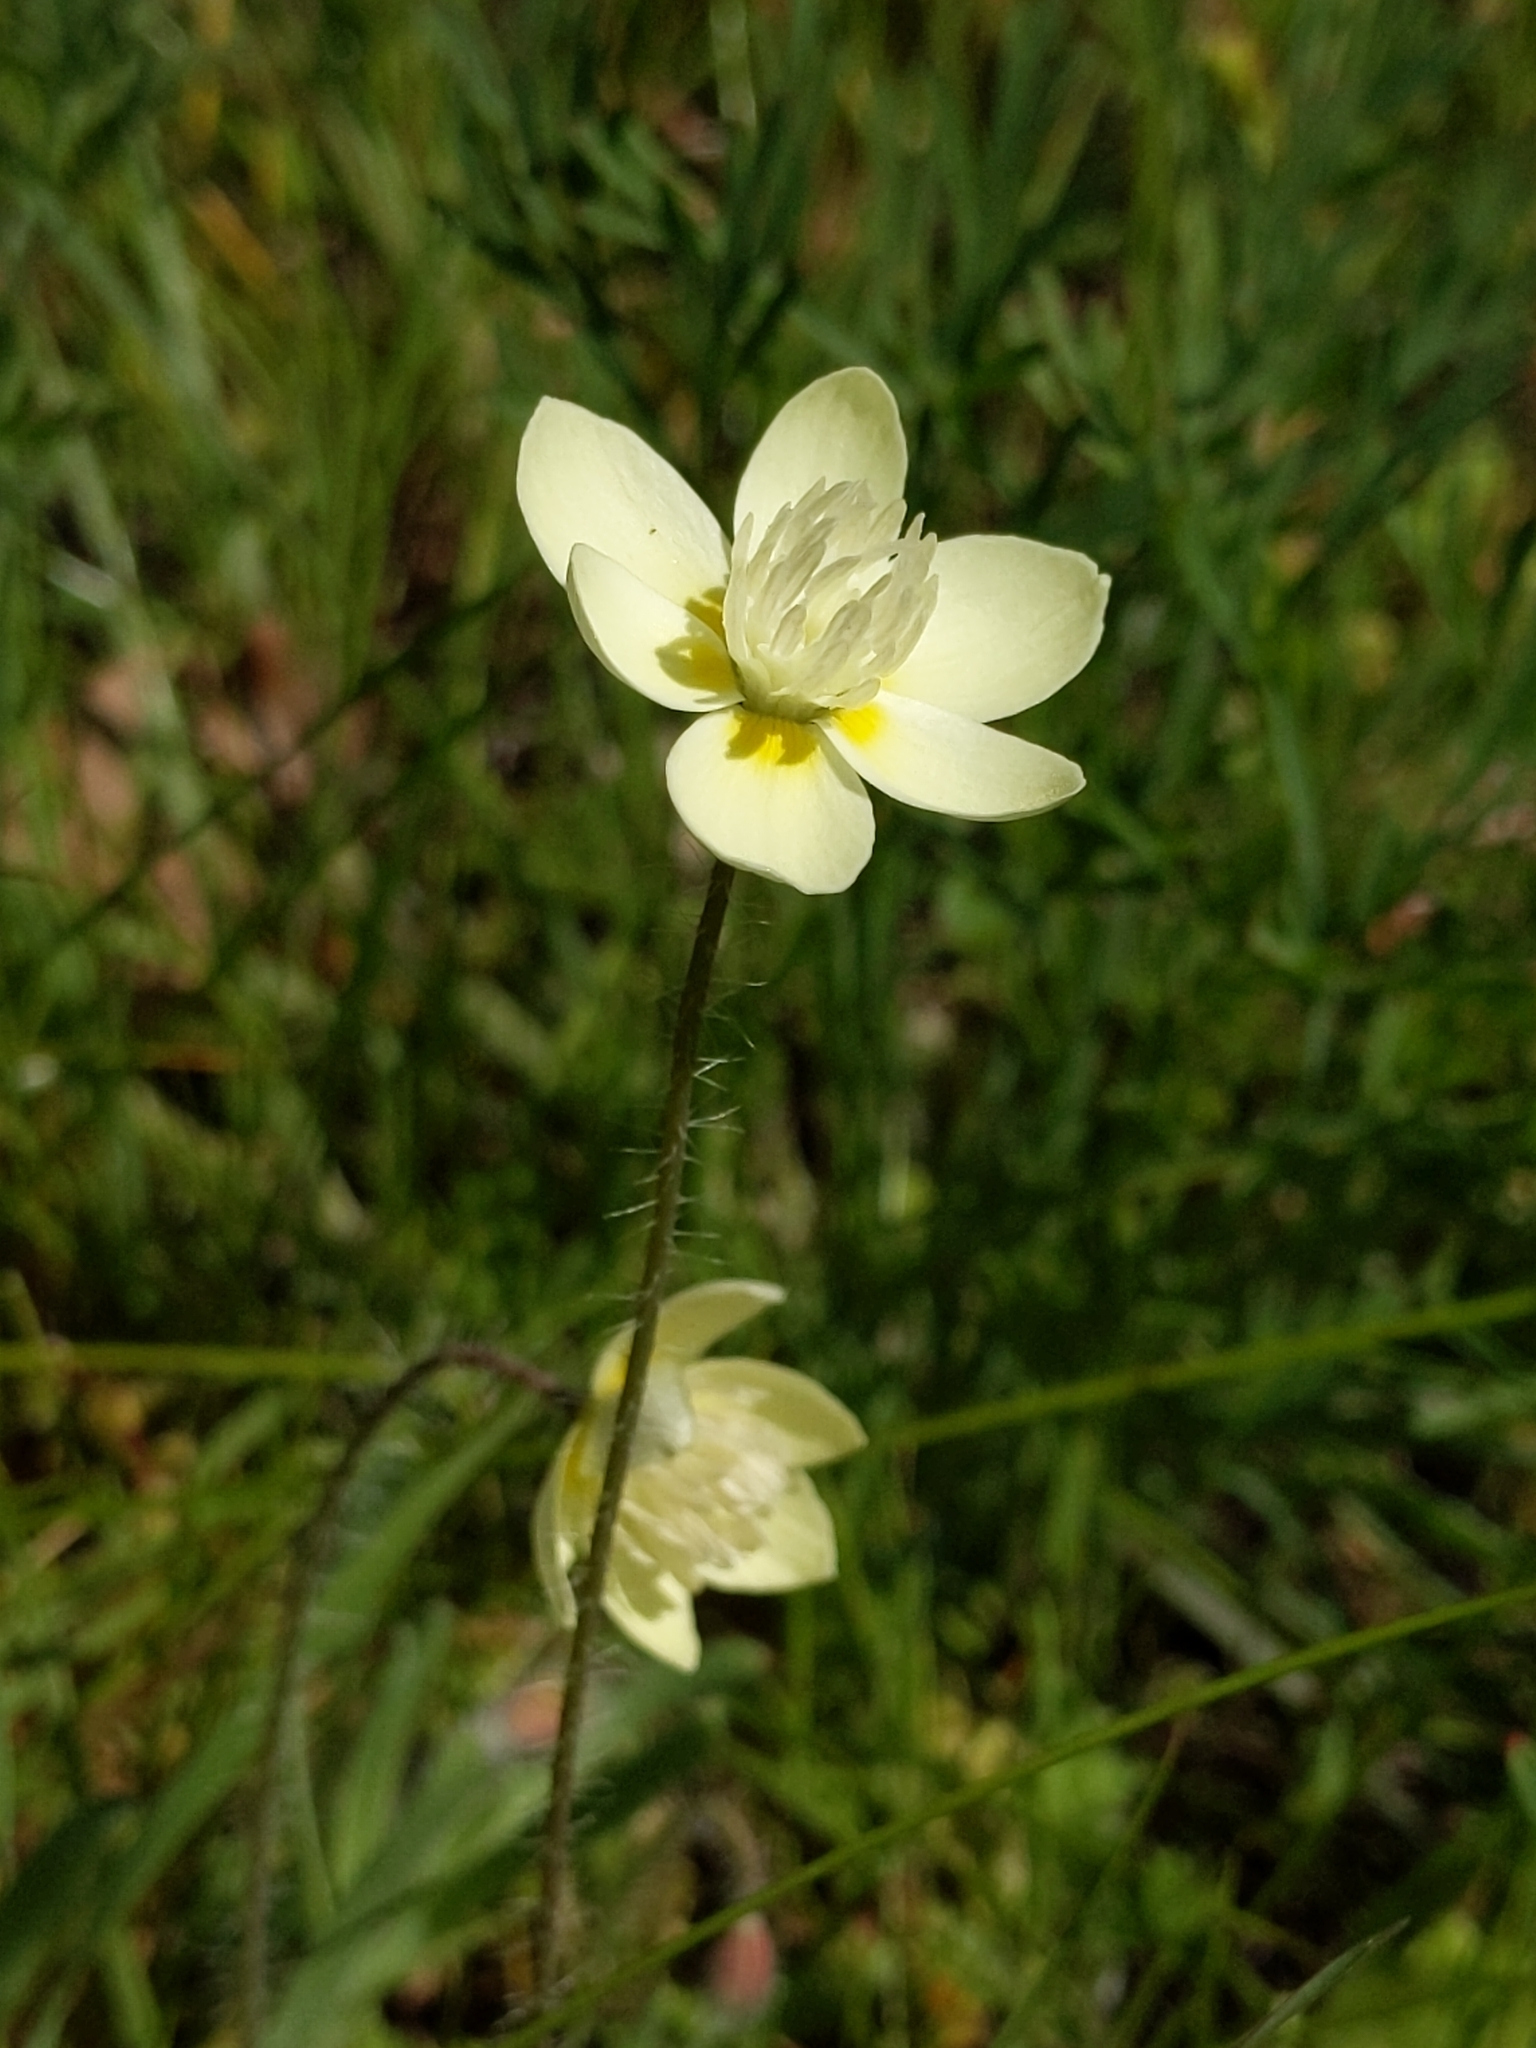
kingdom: Plantae
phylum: Tracheophyta
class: Magnoliopsida
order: Ranunculales
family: Papaveraceae
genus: Platystemon
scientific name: Platystemon californicus
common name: Cream-cups
